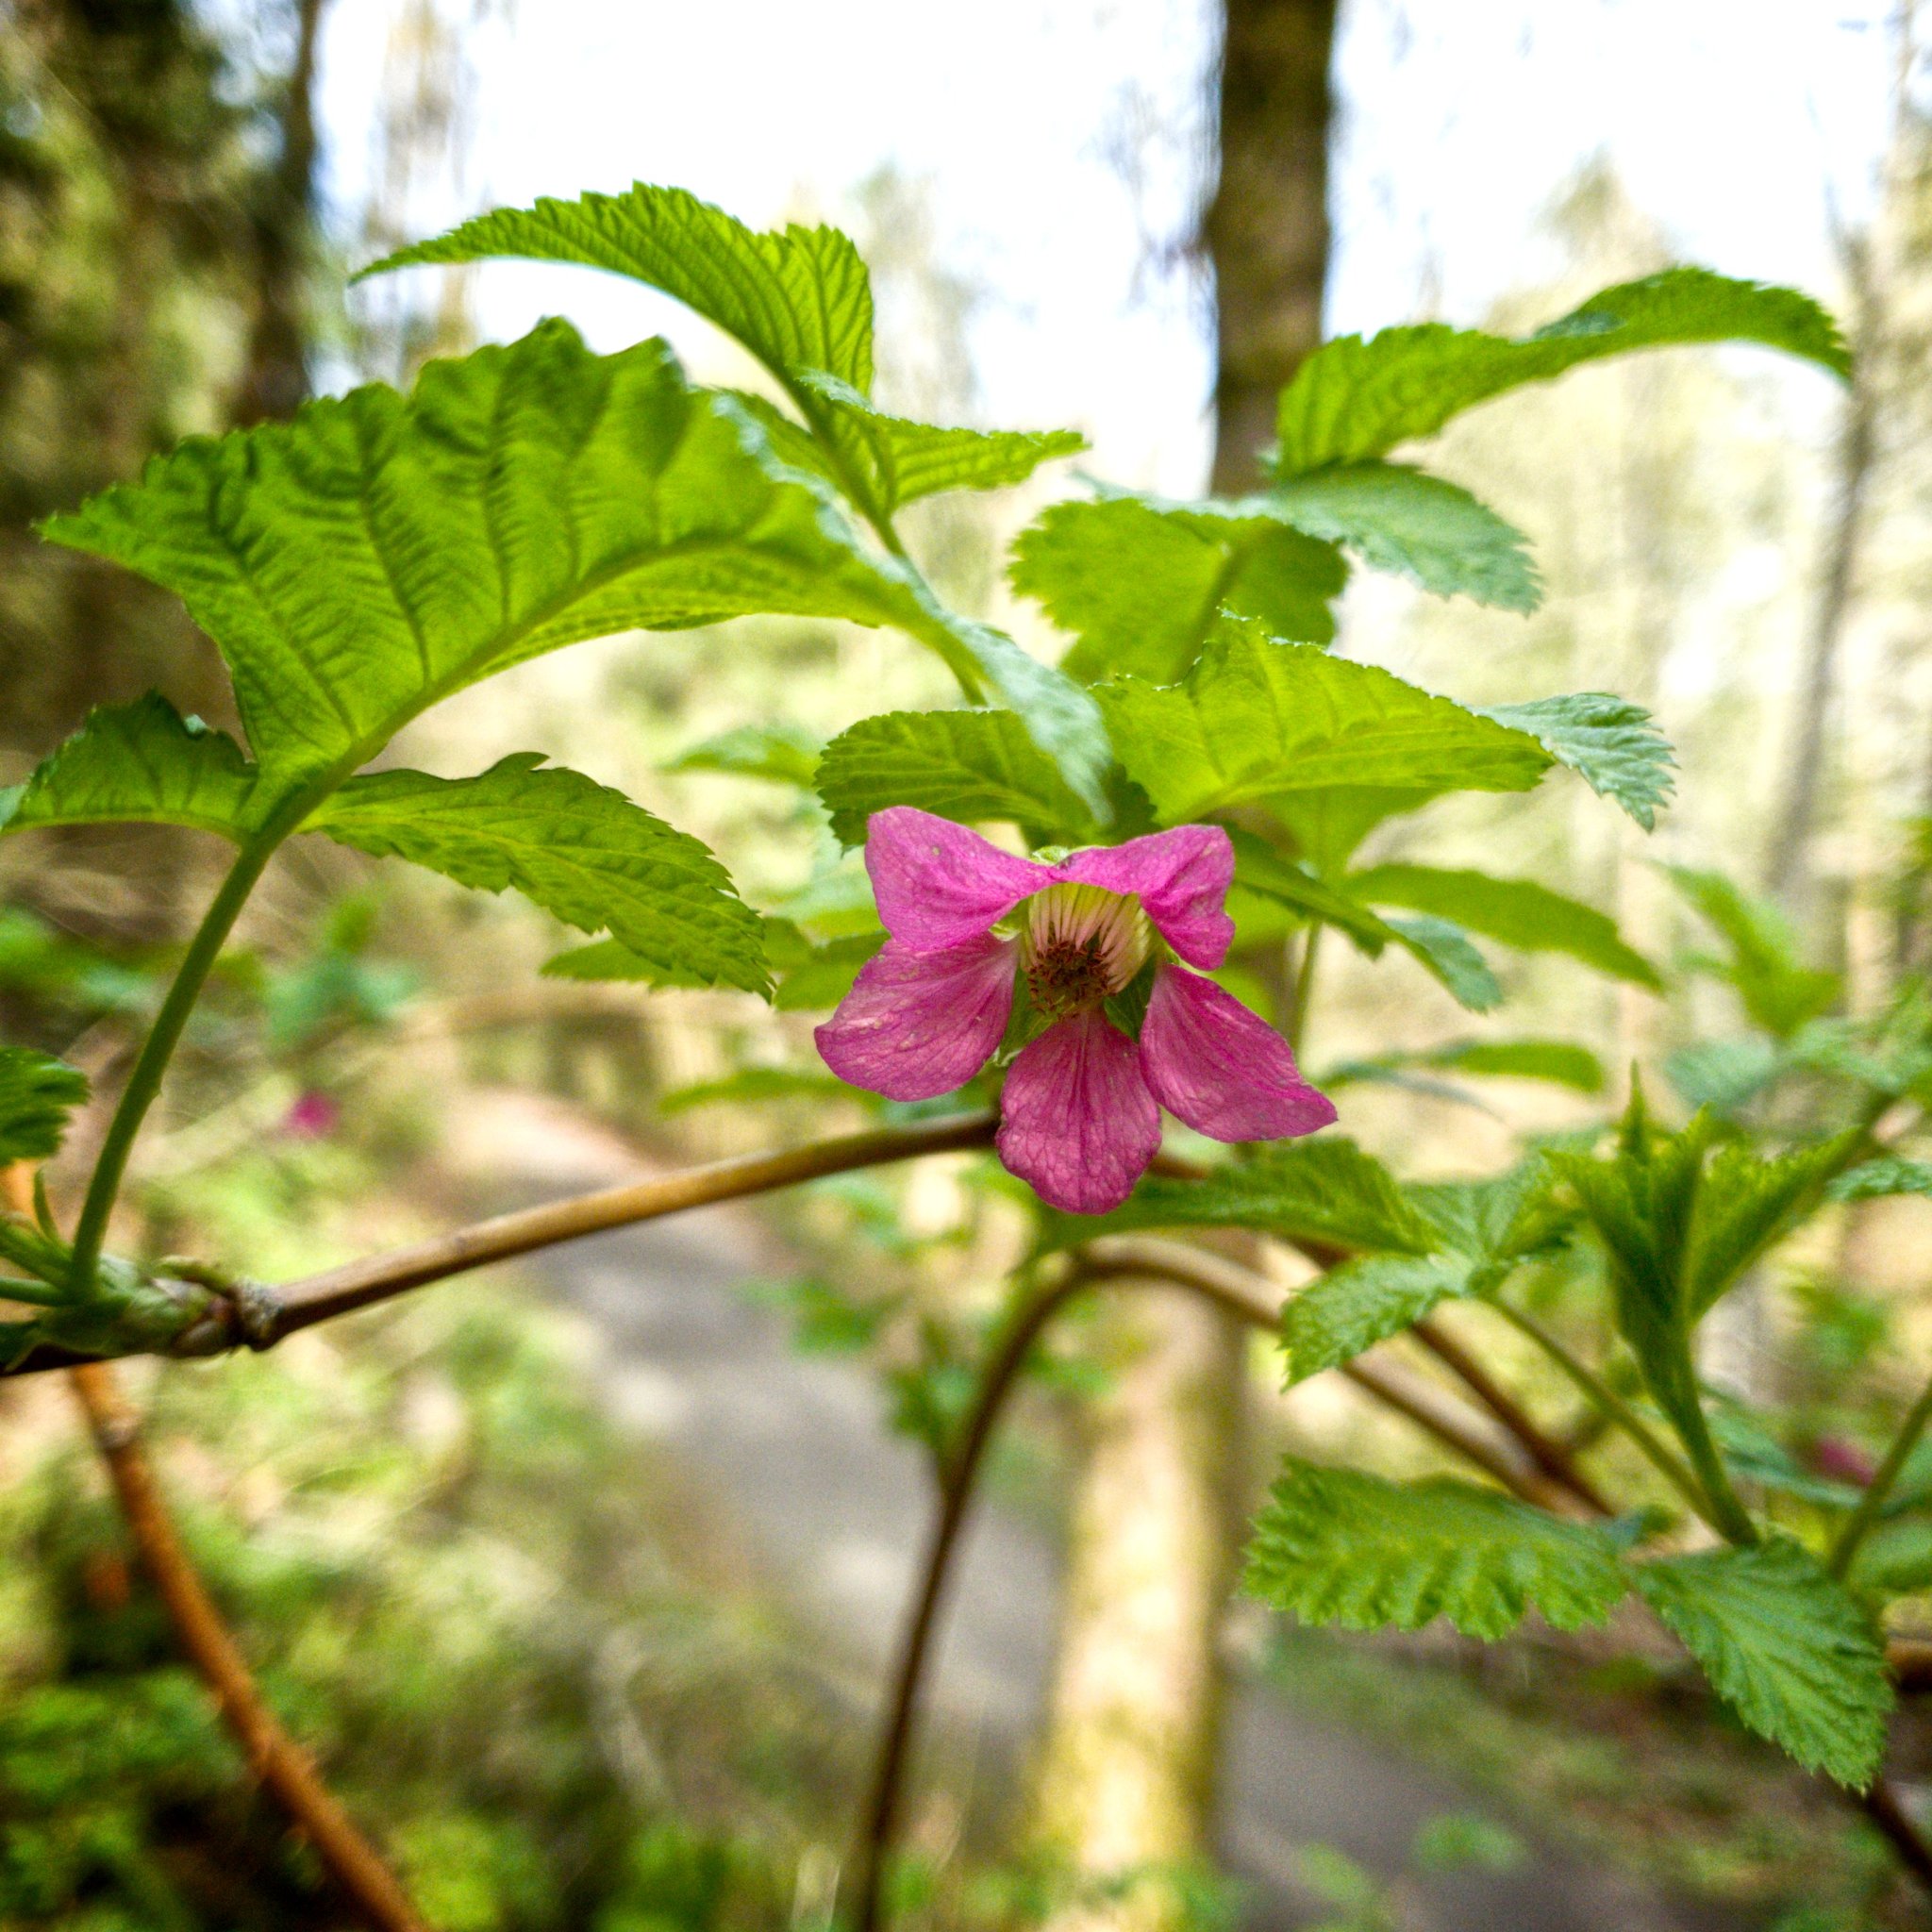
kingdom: Plantae
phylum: Tracheophyta
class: Magnoliopsida
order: Rosales
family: Rosaceae
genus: Rubus
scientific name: Rubus spectabilis
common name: Salmonberry
